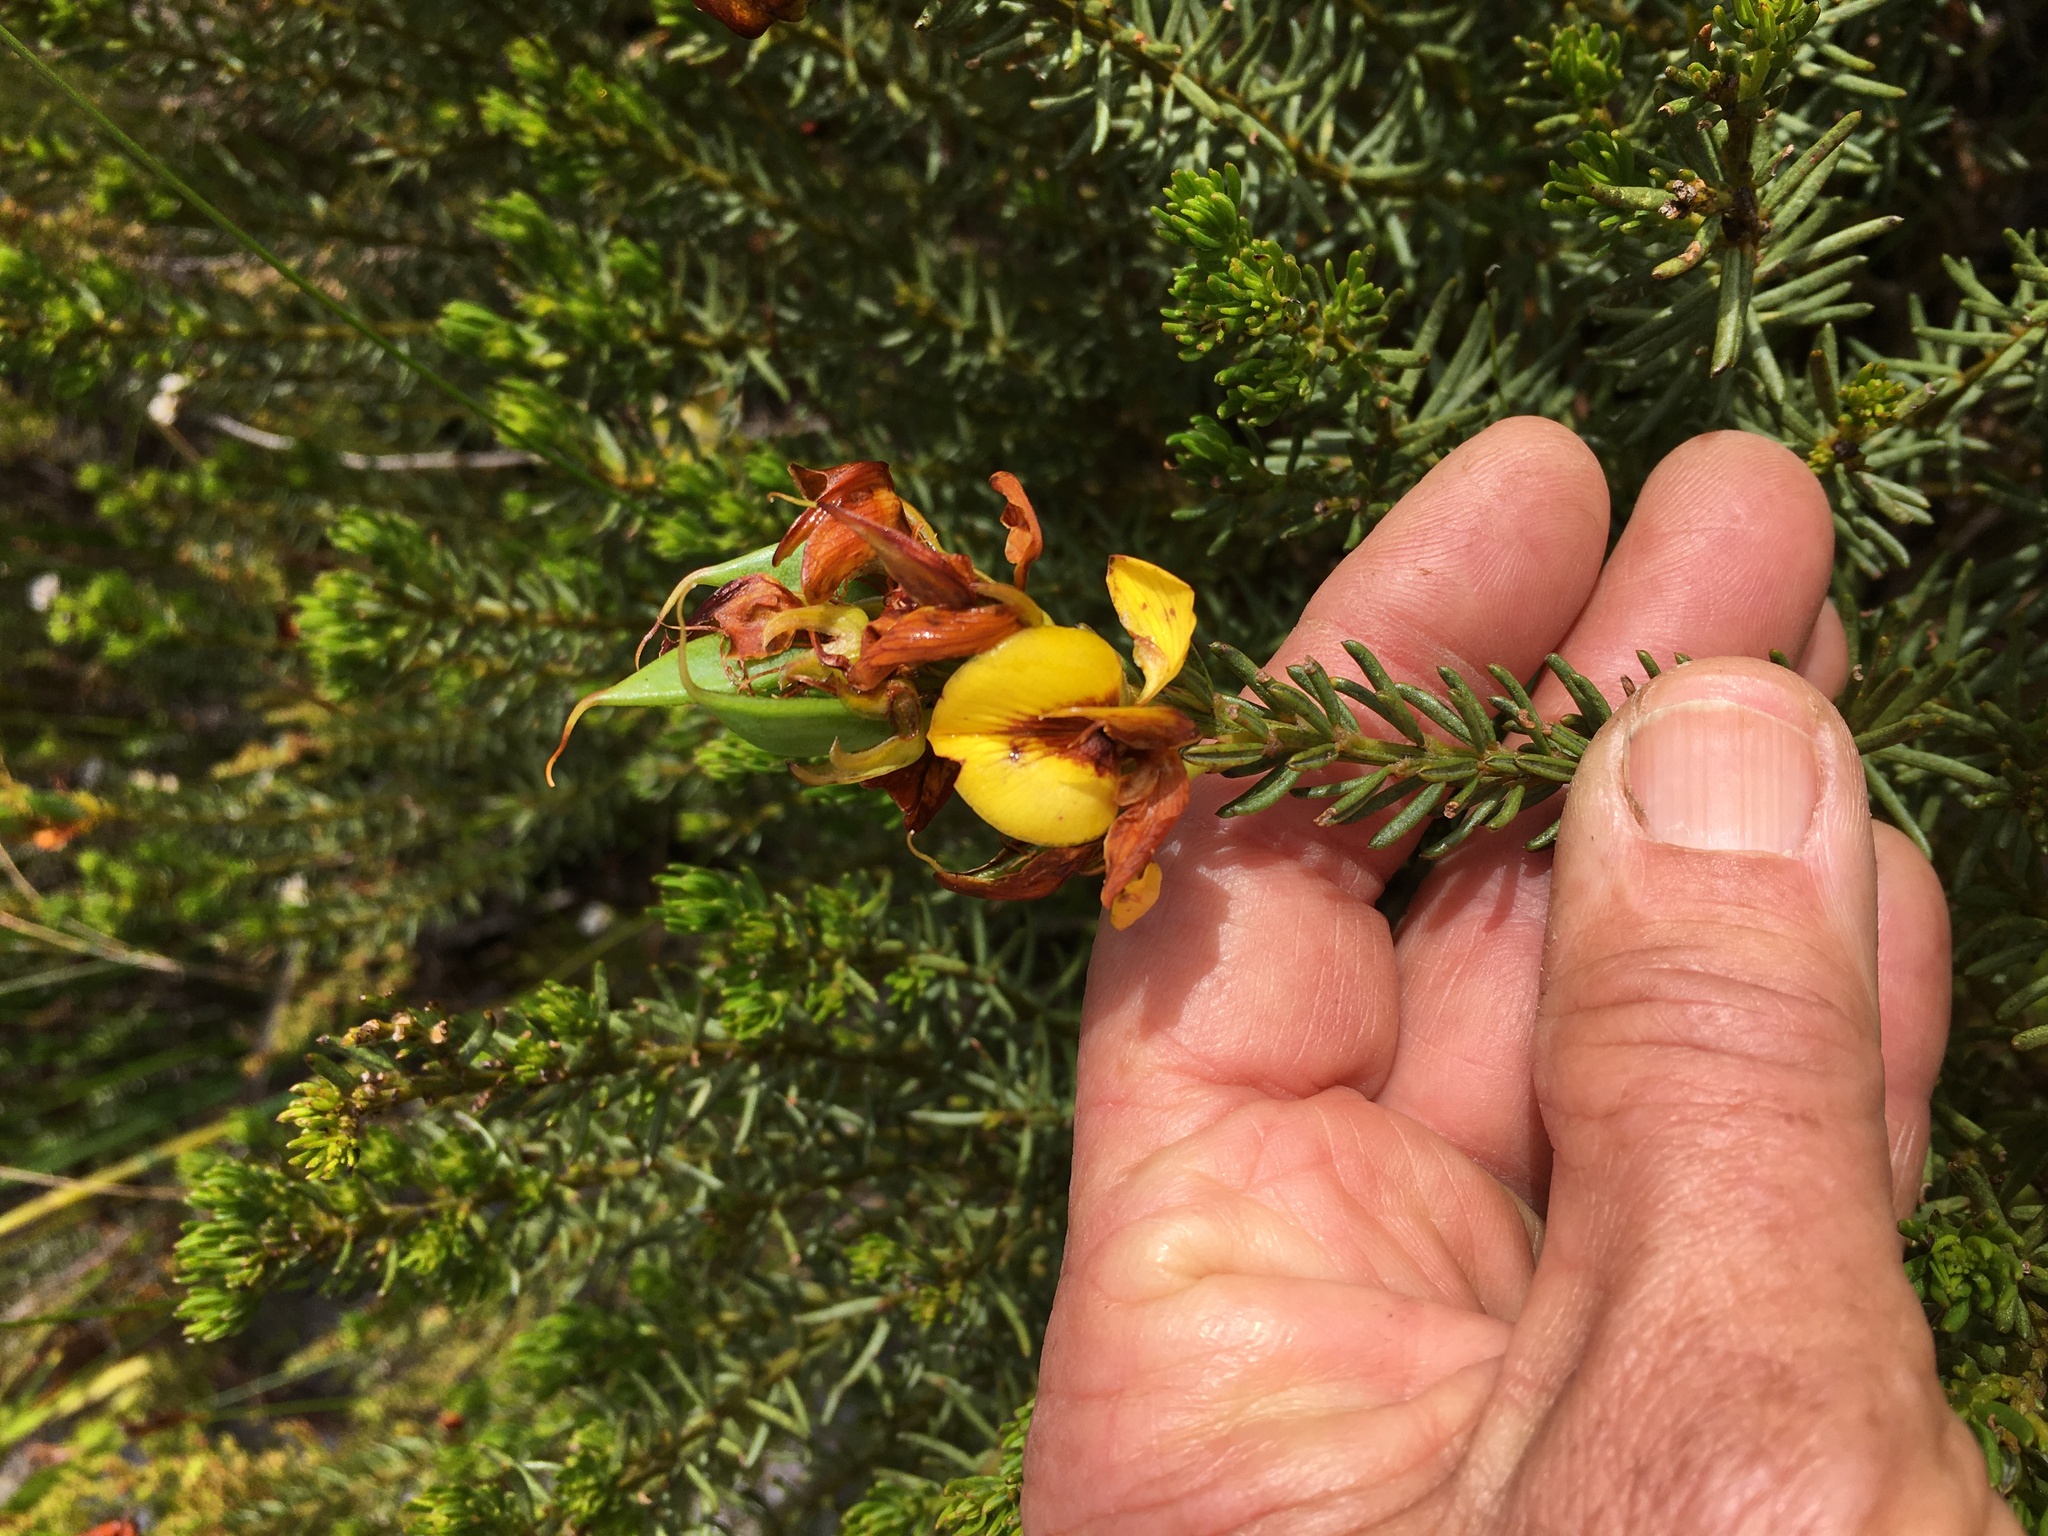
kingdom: Plantae
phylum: Tracheophyta
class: Magnoliopsida
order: Fabales
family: Fabaceae
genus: Cyclopia
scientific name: Cyclopia genistoides
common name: Honeybush tea
